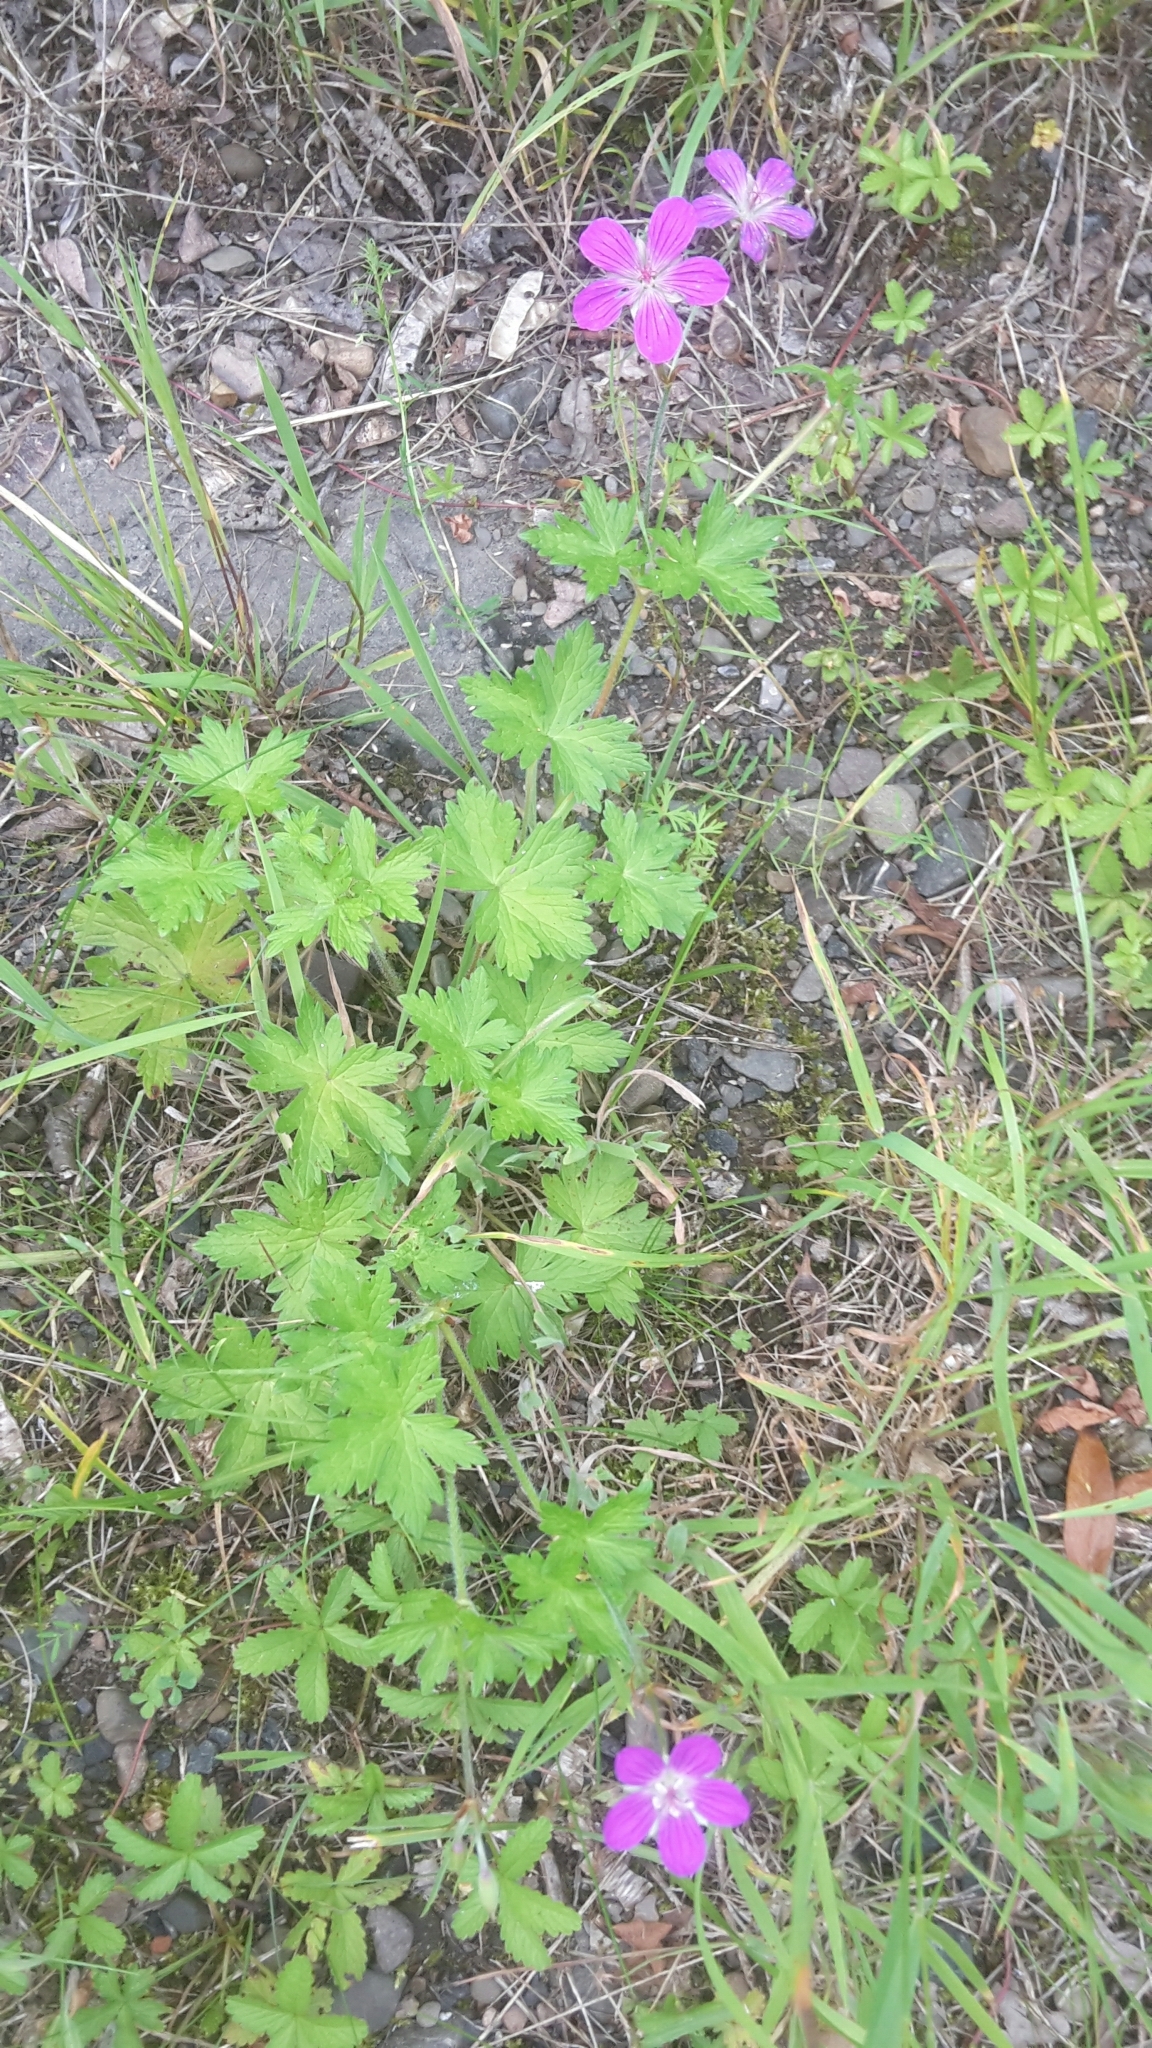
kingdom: Plantae
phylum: Tracheophyta
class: Magnoliopsida
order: Geraniales
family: Geraniaceae
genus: Geranium
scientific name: Geranium palustre
